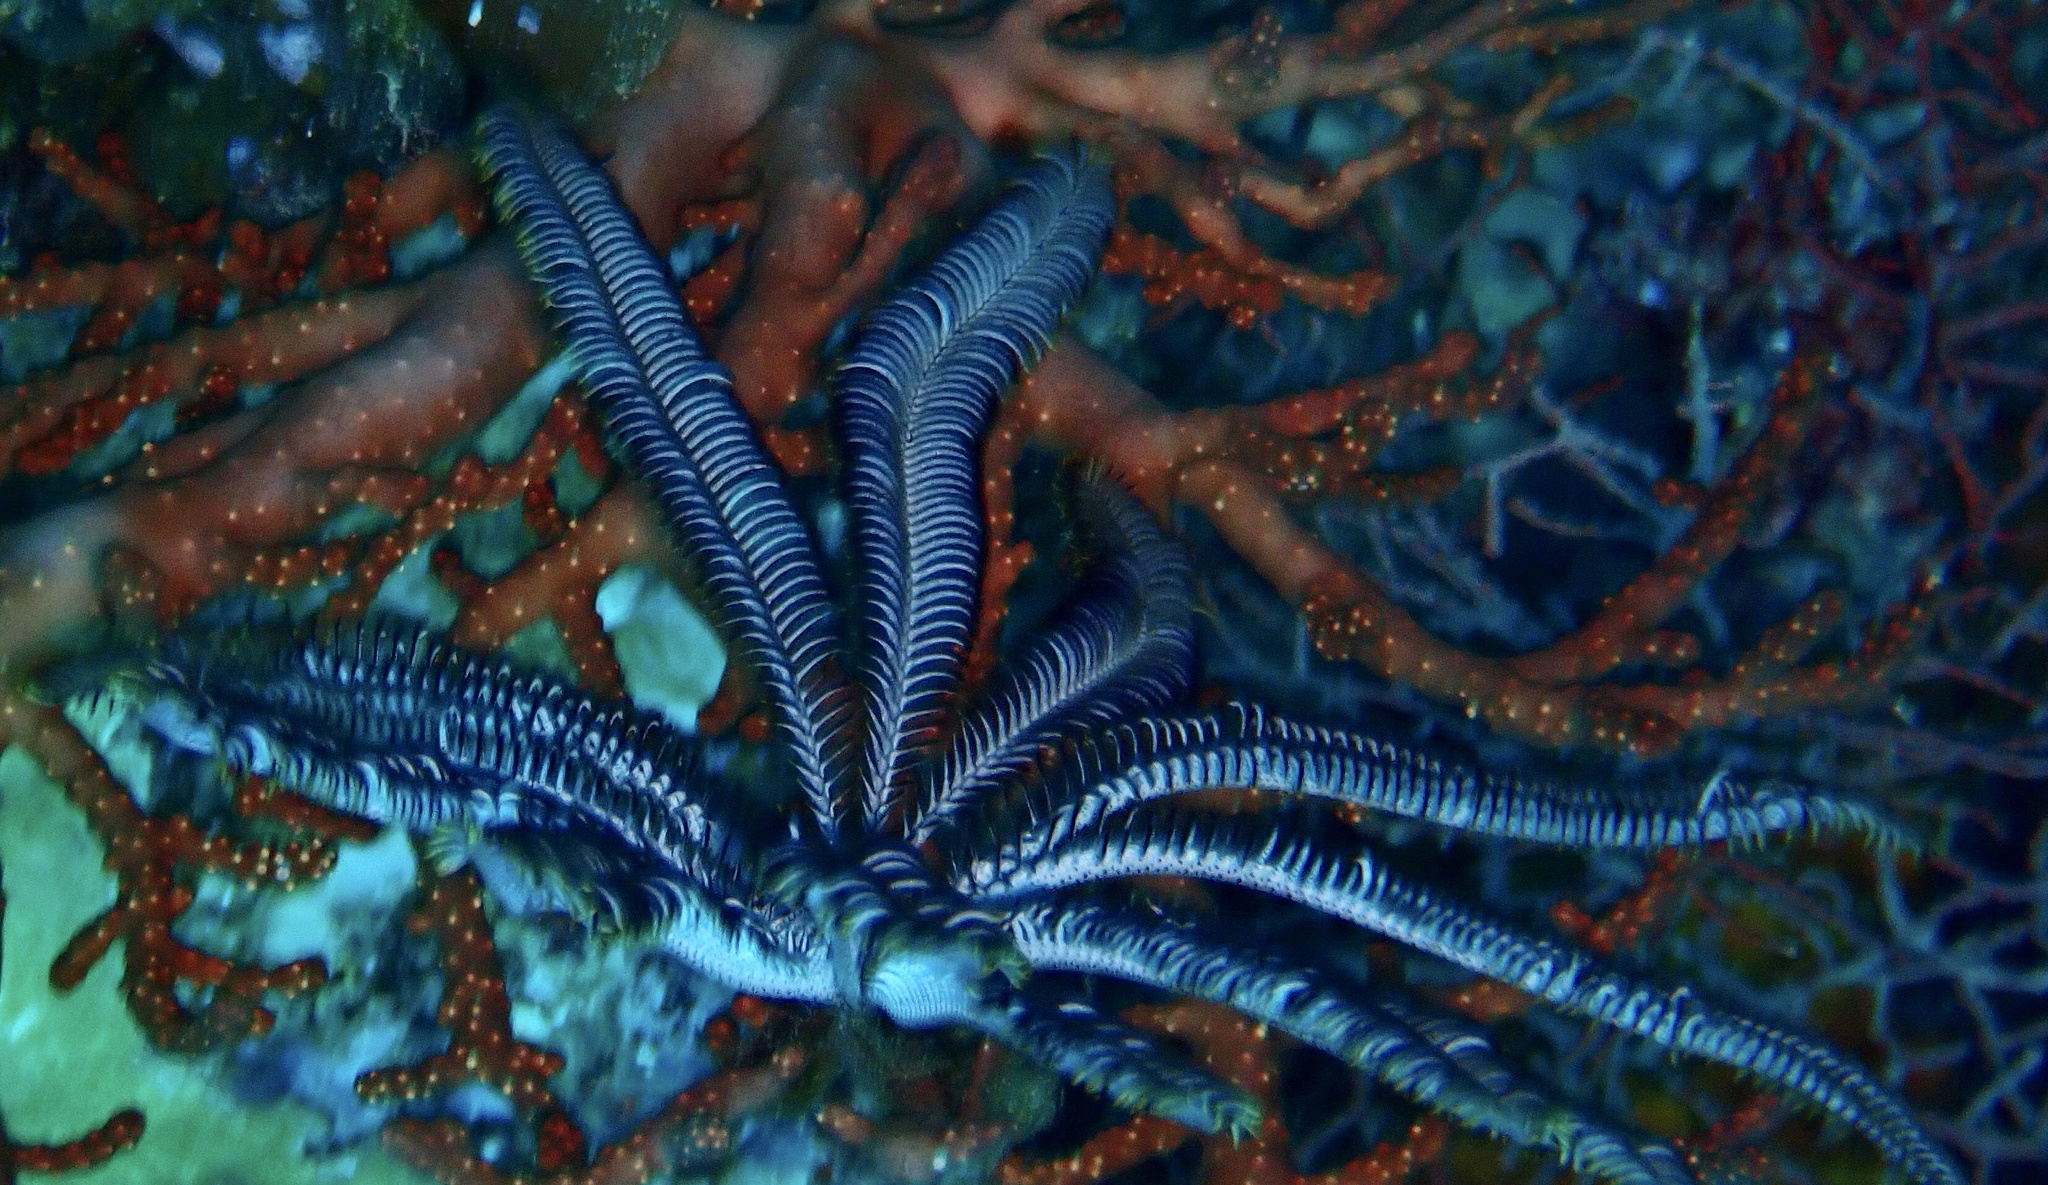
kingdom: Animalia
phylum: Echinodermata
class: Crinoidea
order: Comatulida
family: Colobometridae
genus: Cenometra
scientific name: Cenometra bella
